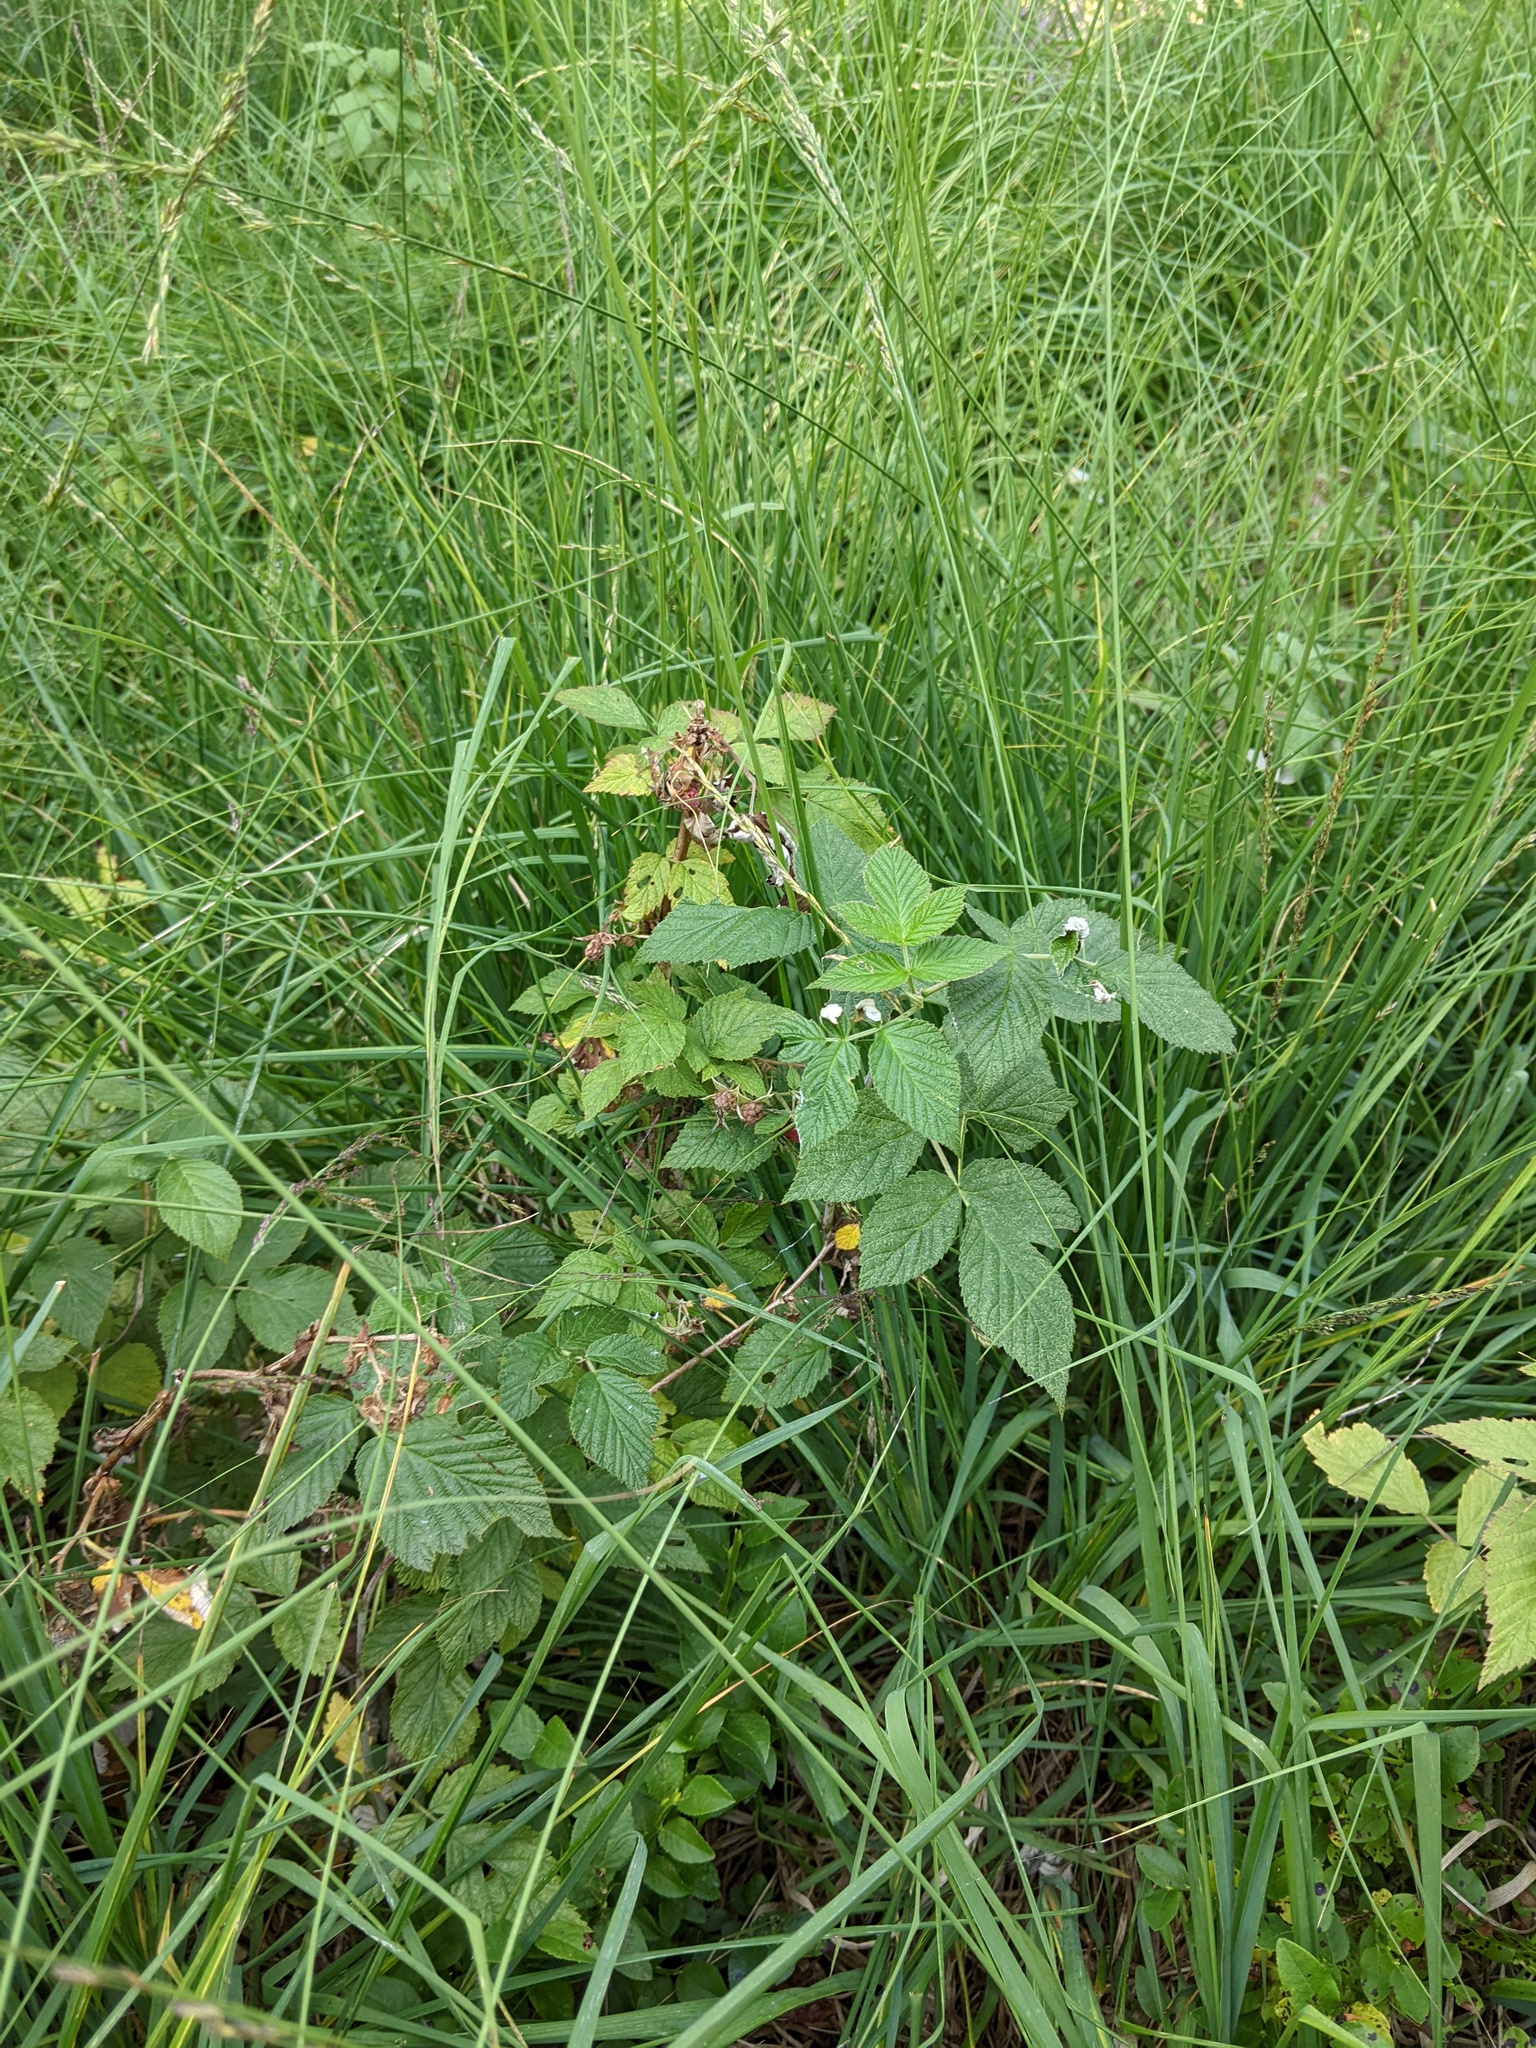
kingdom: Plantae
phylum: Tracheophyta
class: Magnoliopsida
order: Rosales
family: Rosaceae
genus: Rubus
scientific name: Rubus idaeus
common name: Raspberry
